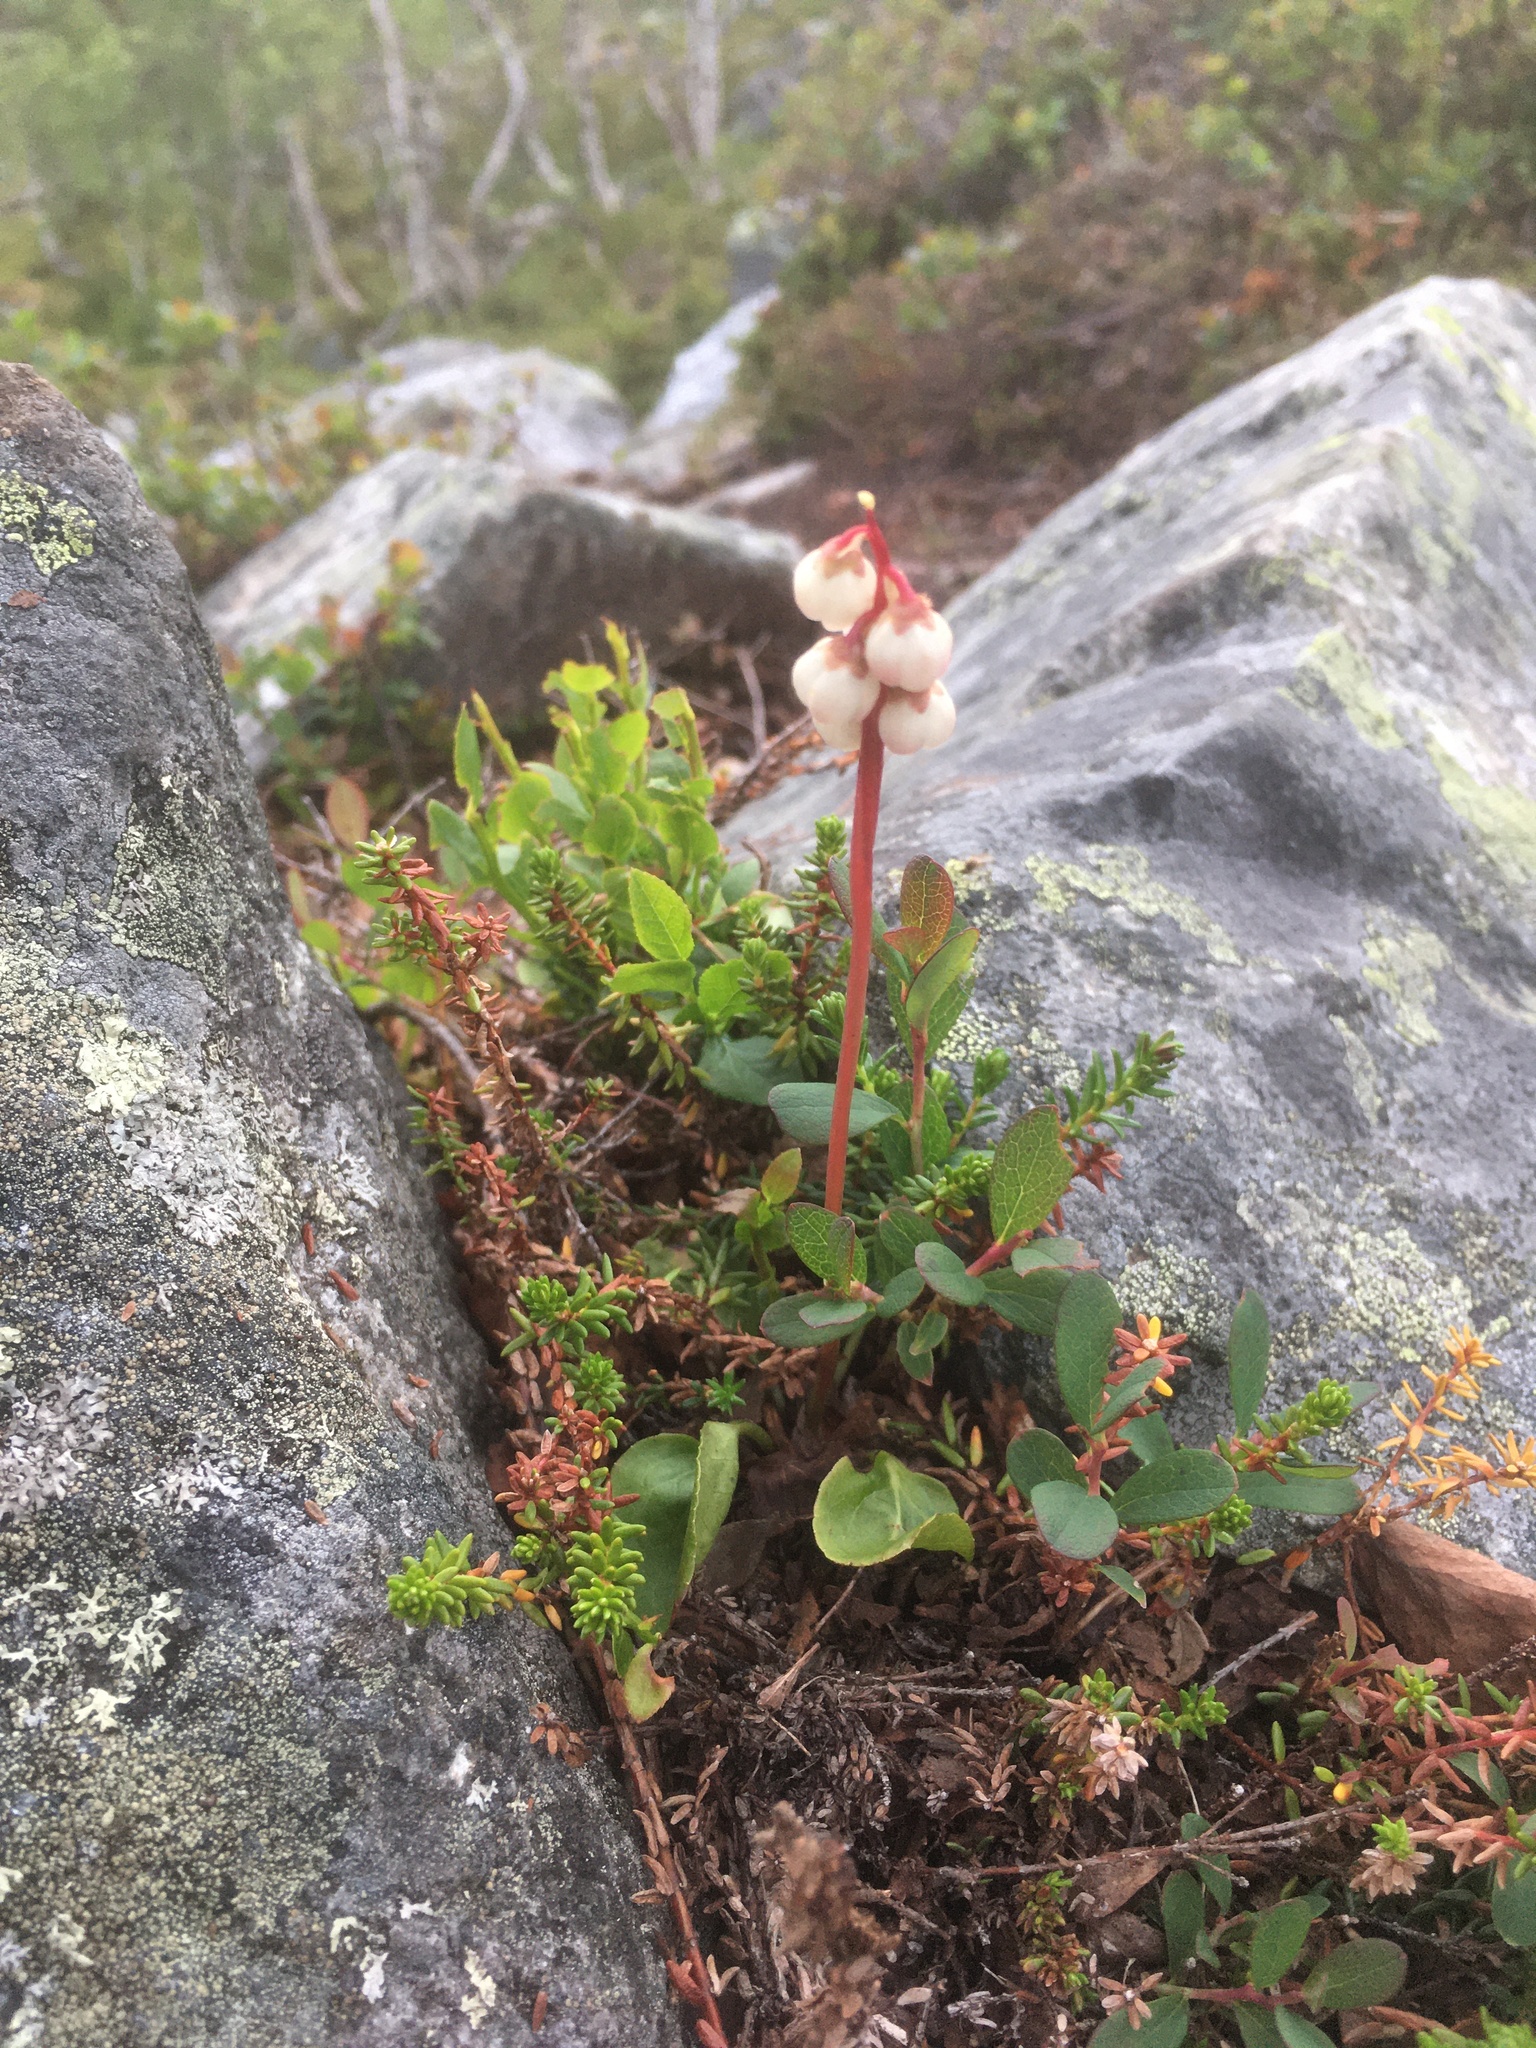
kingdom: Plantae
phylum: Tracheophyta
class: Magnoliopsida
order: Ericales
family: Ericaceae
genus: Pyrola
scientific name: Pyrola minor
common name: Common wintergreen
